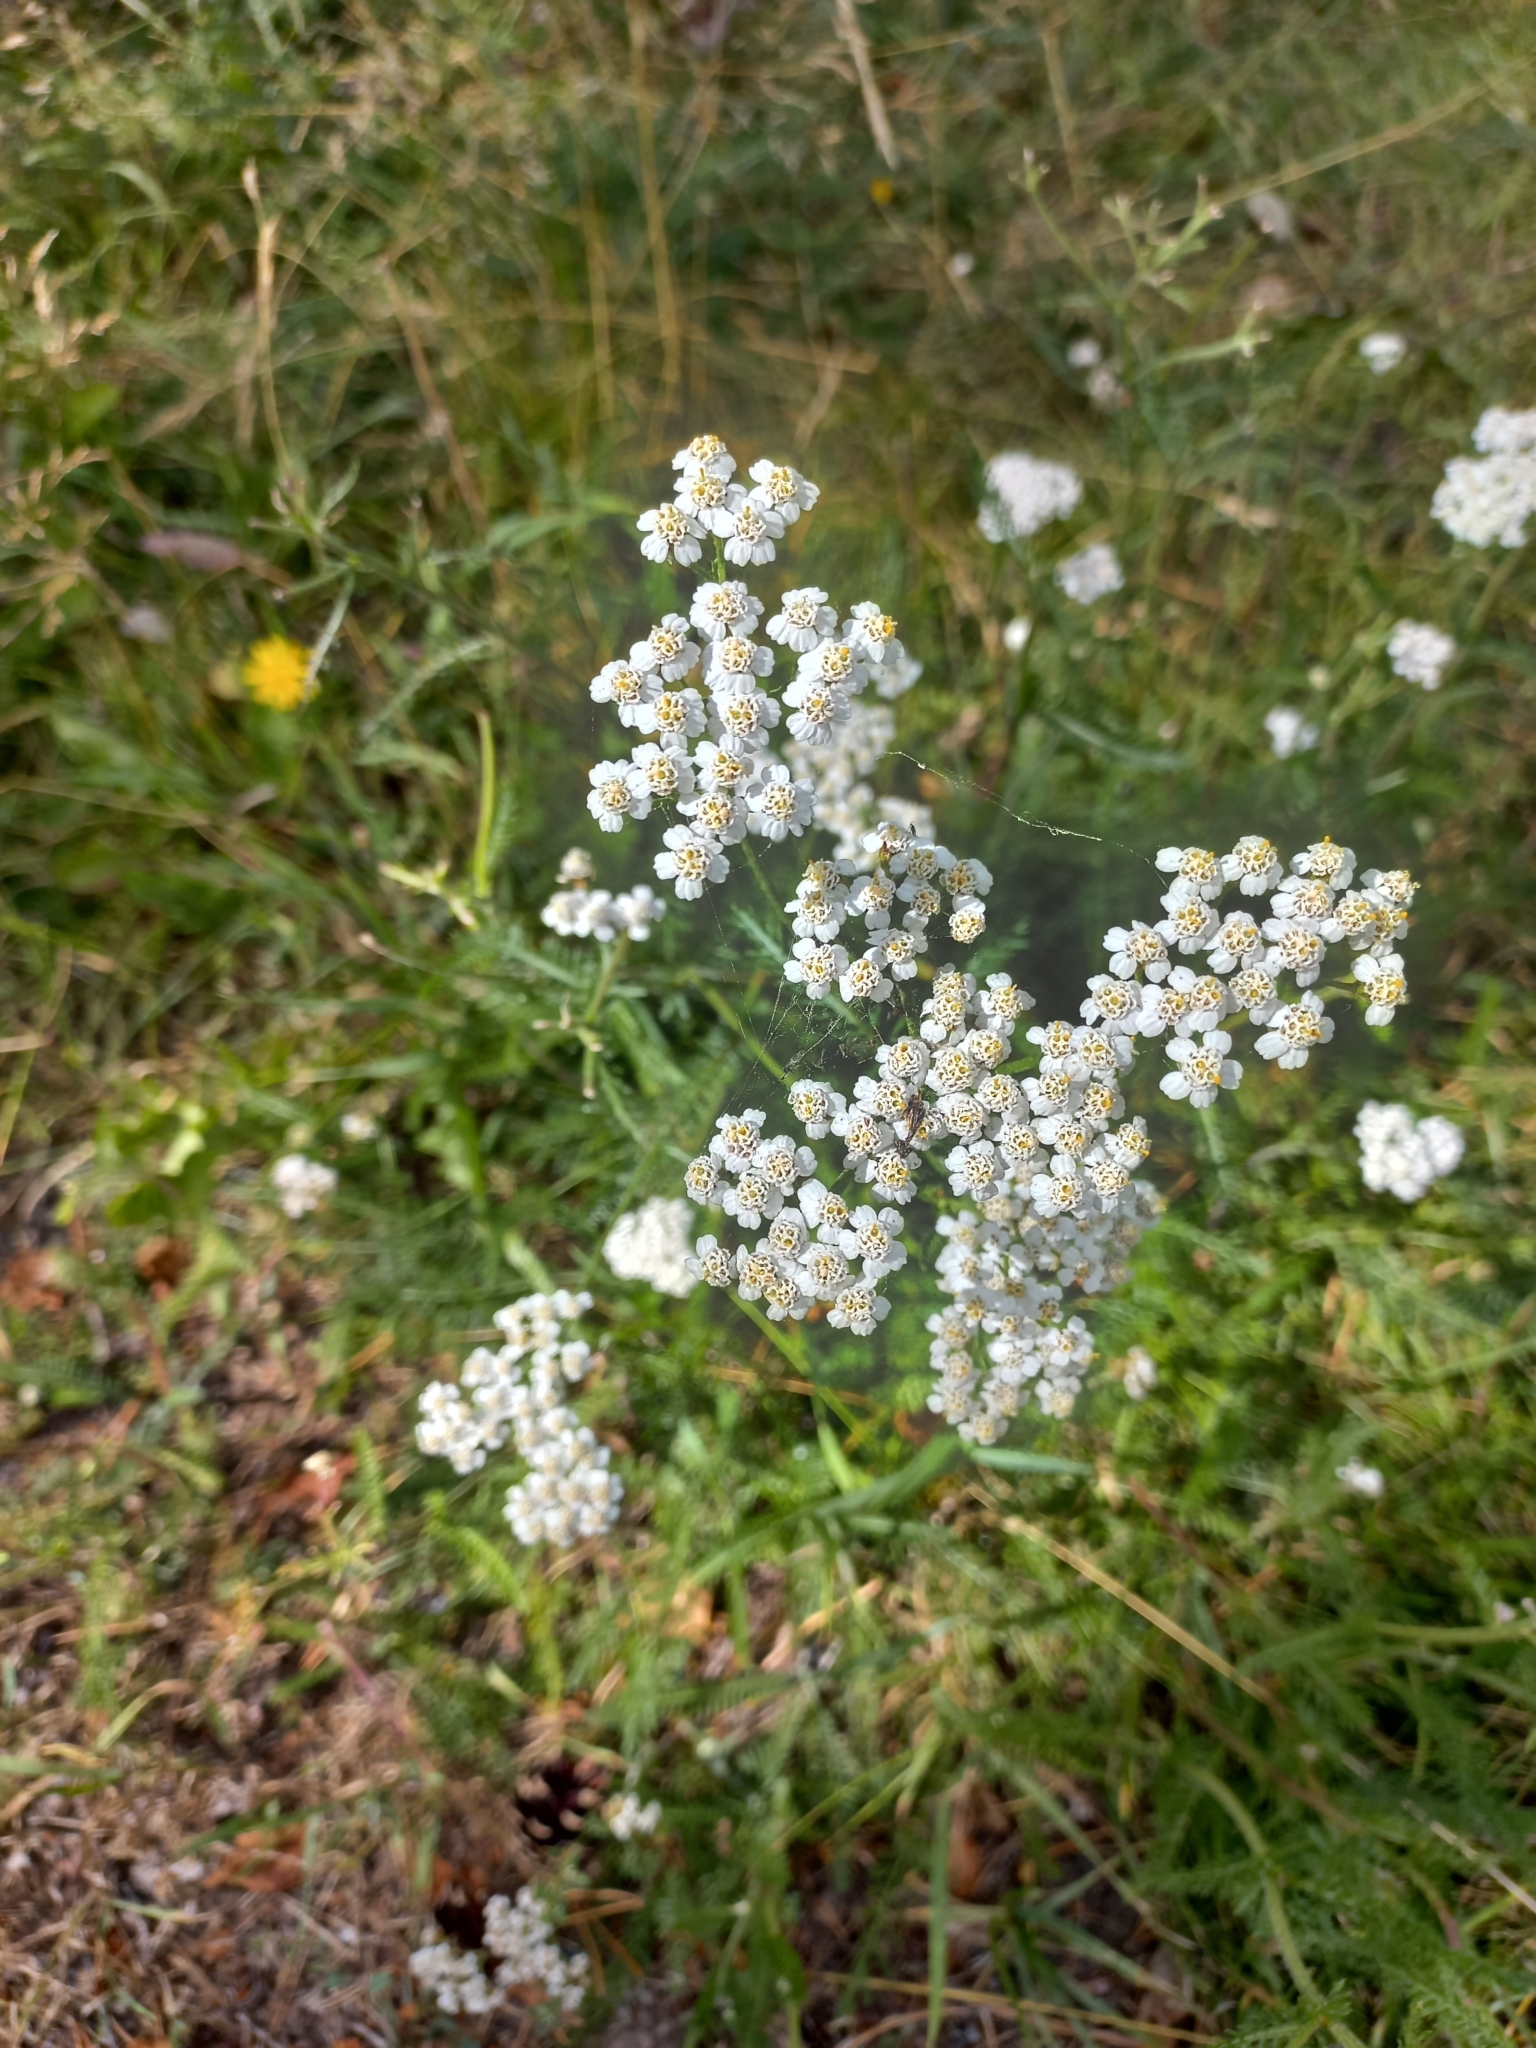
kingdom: Plantae
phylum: Tracheophyta
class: Magnoliopsida
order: Asterales
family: Asteraceae
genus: Achillea
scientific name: Achillea millefolium
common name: Yarrow
